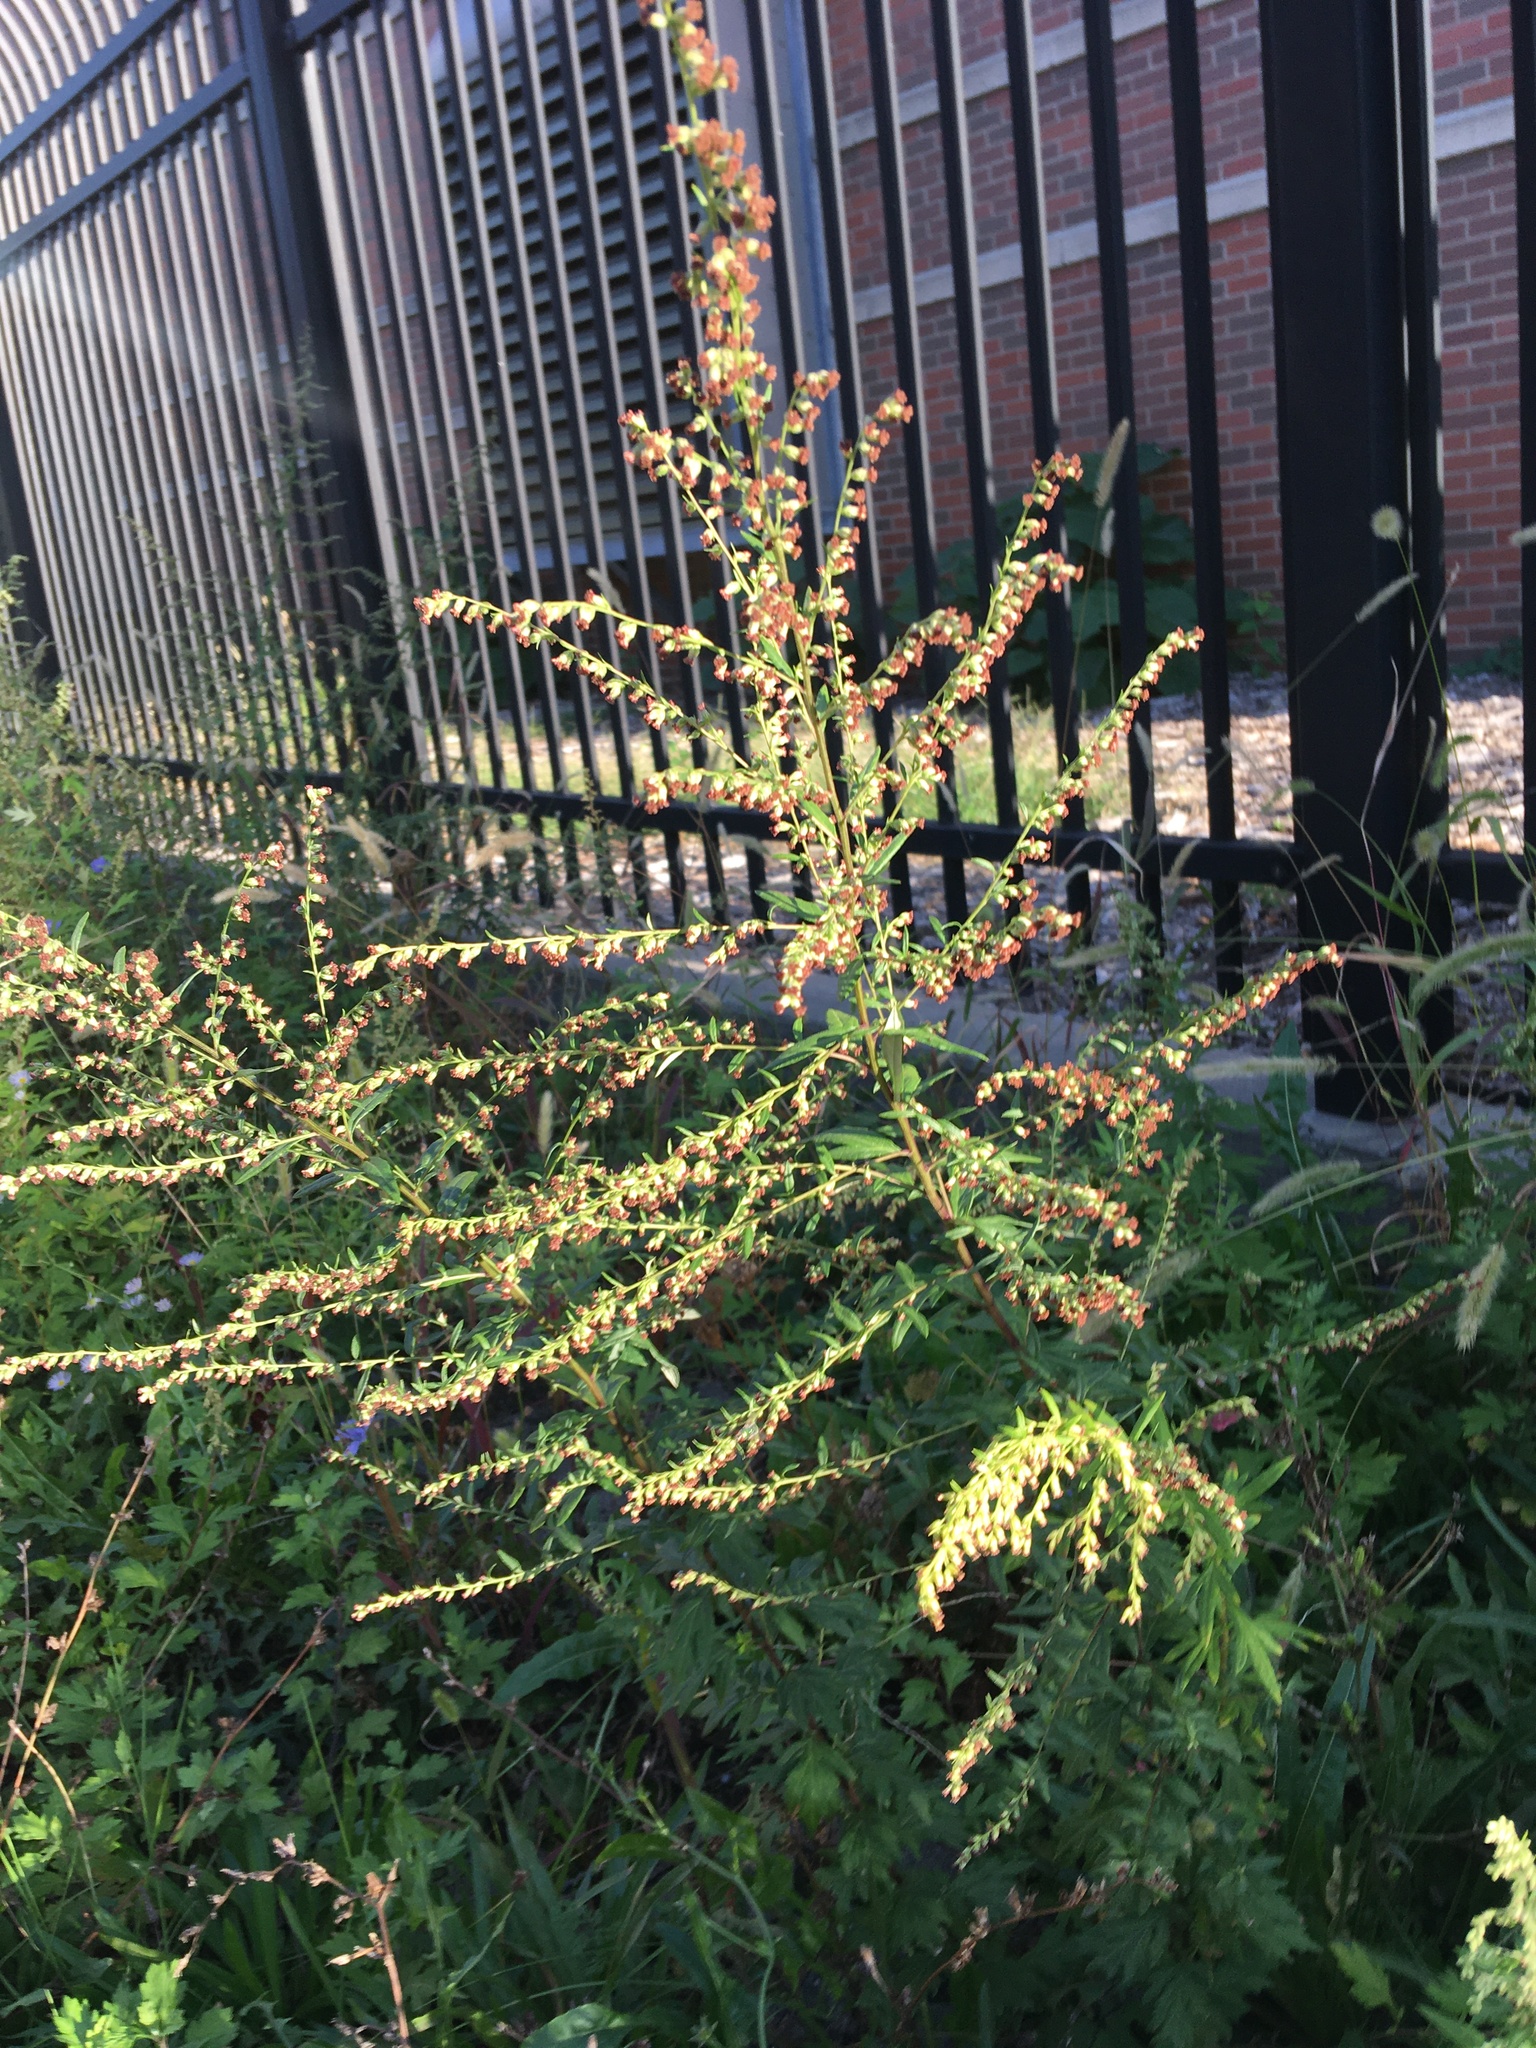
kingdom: Plantae
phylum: Tracheophyta
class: Magnoliopsida
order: Asterales
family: Asteraceae
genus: Artemisia
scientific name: Artemisia vulgaris
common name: Mugwort
